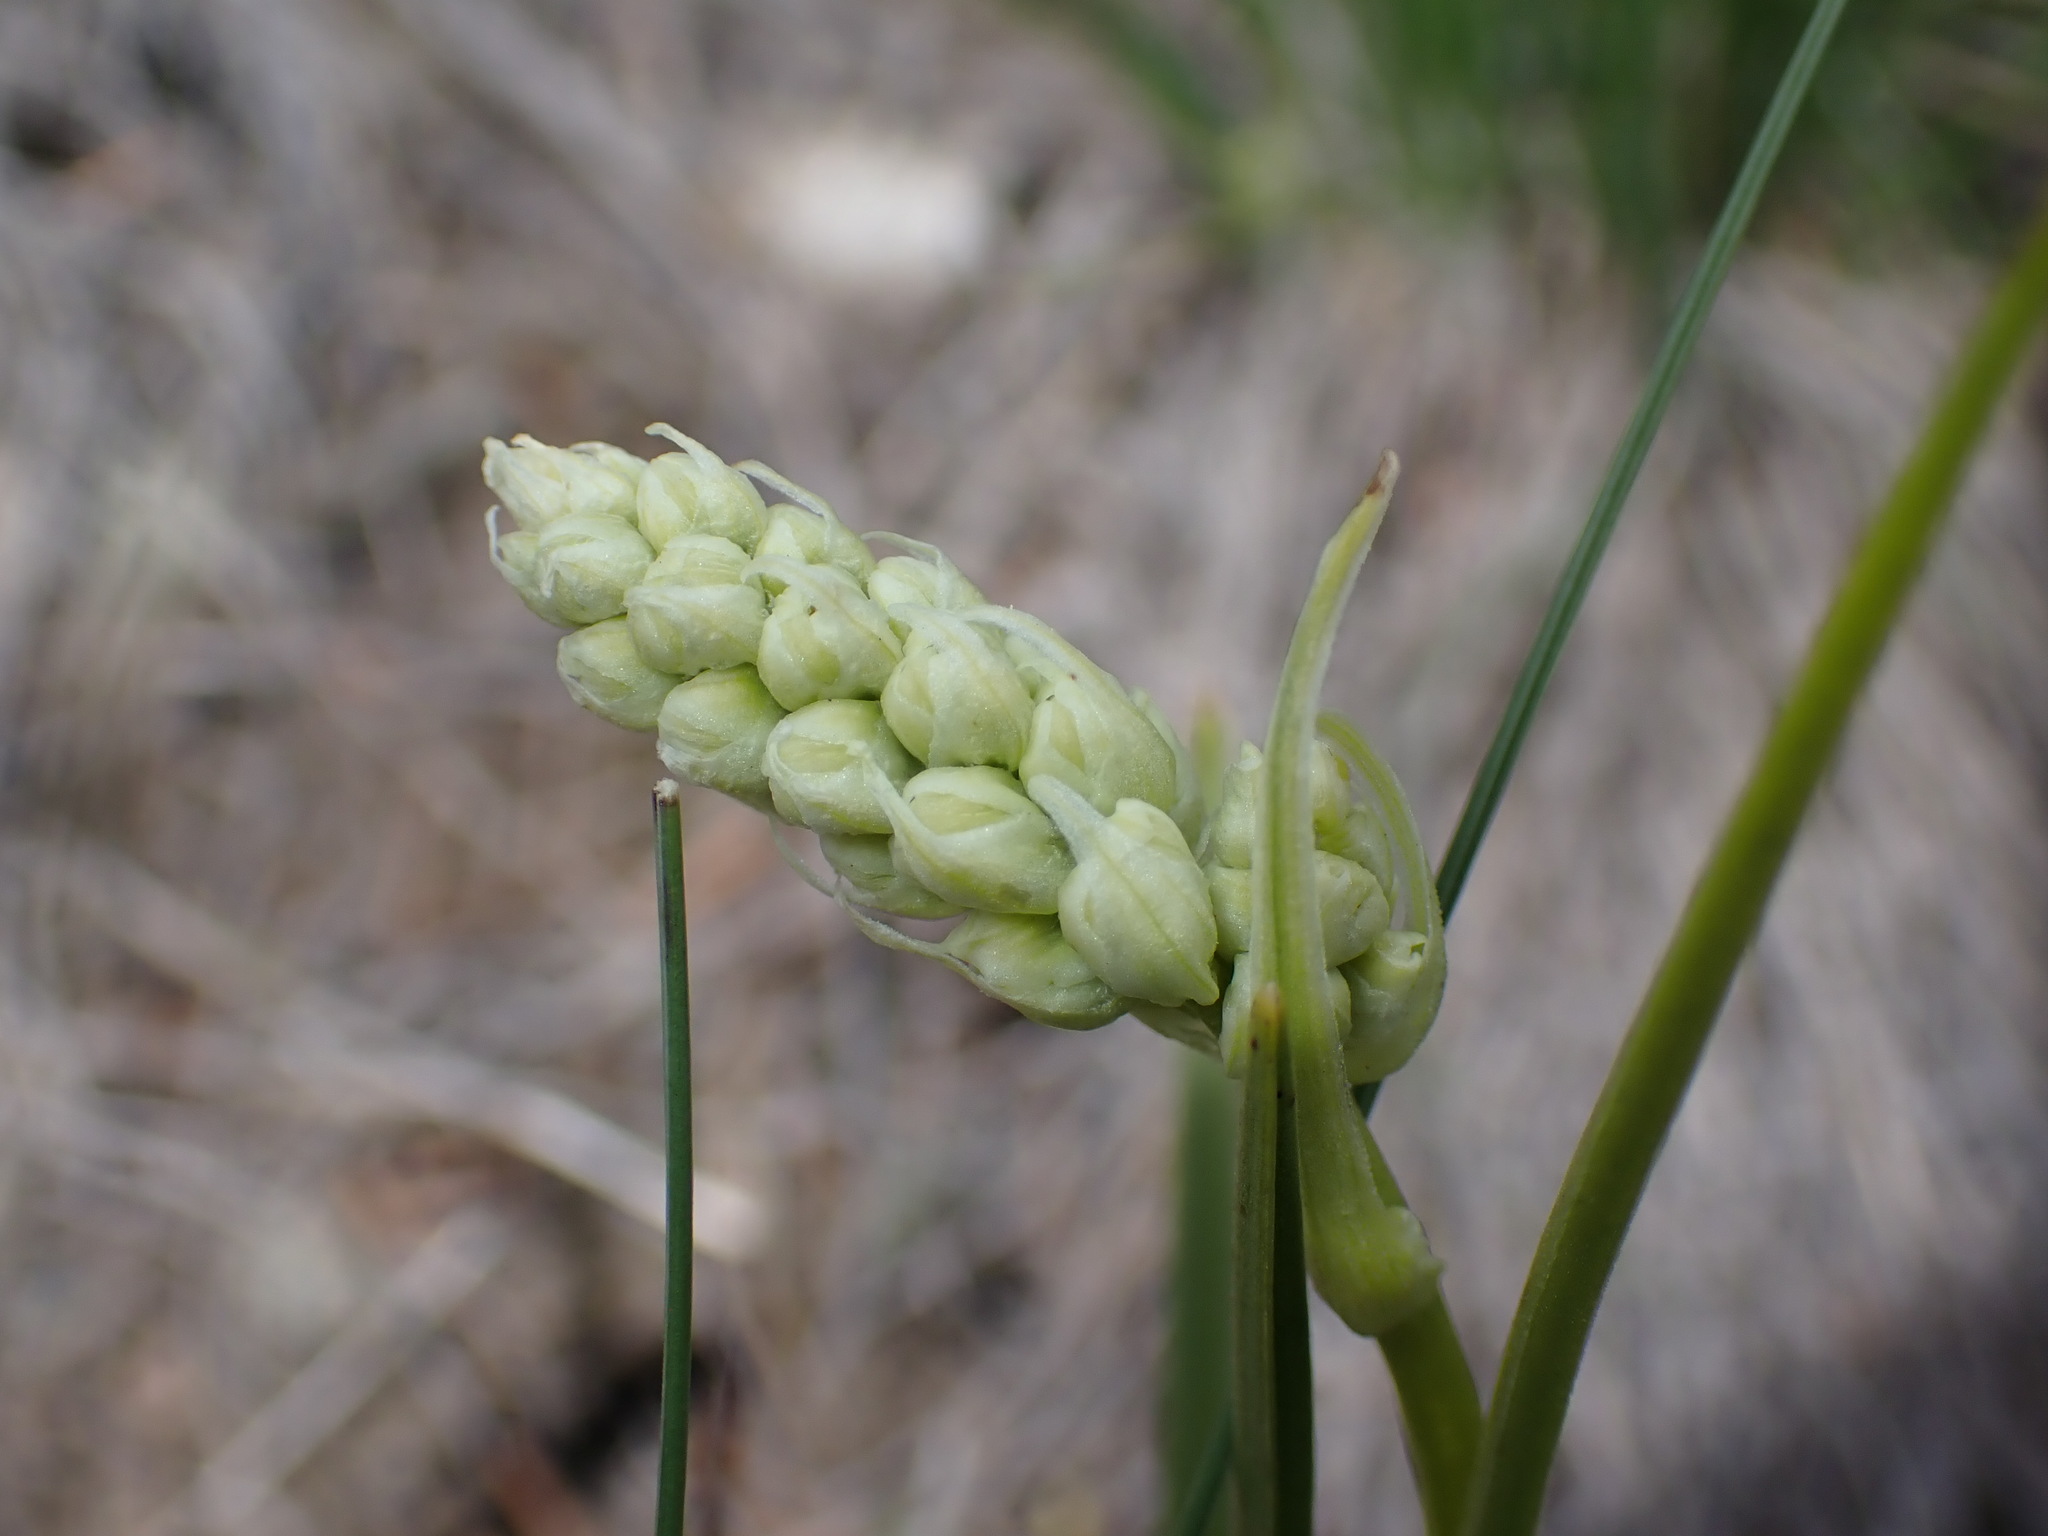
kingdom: Plantae
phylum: Tracheophyta
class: Liliopsida
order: Liliales
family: Melanthiaceae
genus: Toxicoscordion
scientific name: Toxicoscordion venenosum
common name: Meadow death camas
